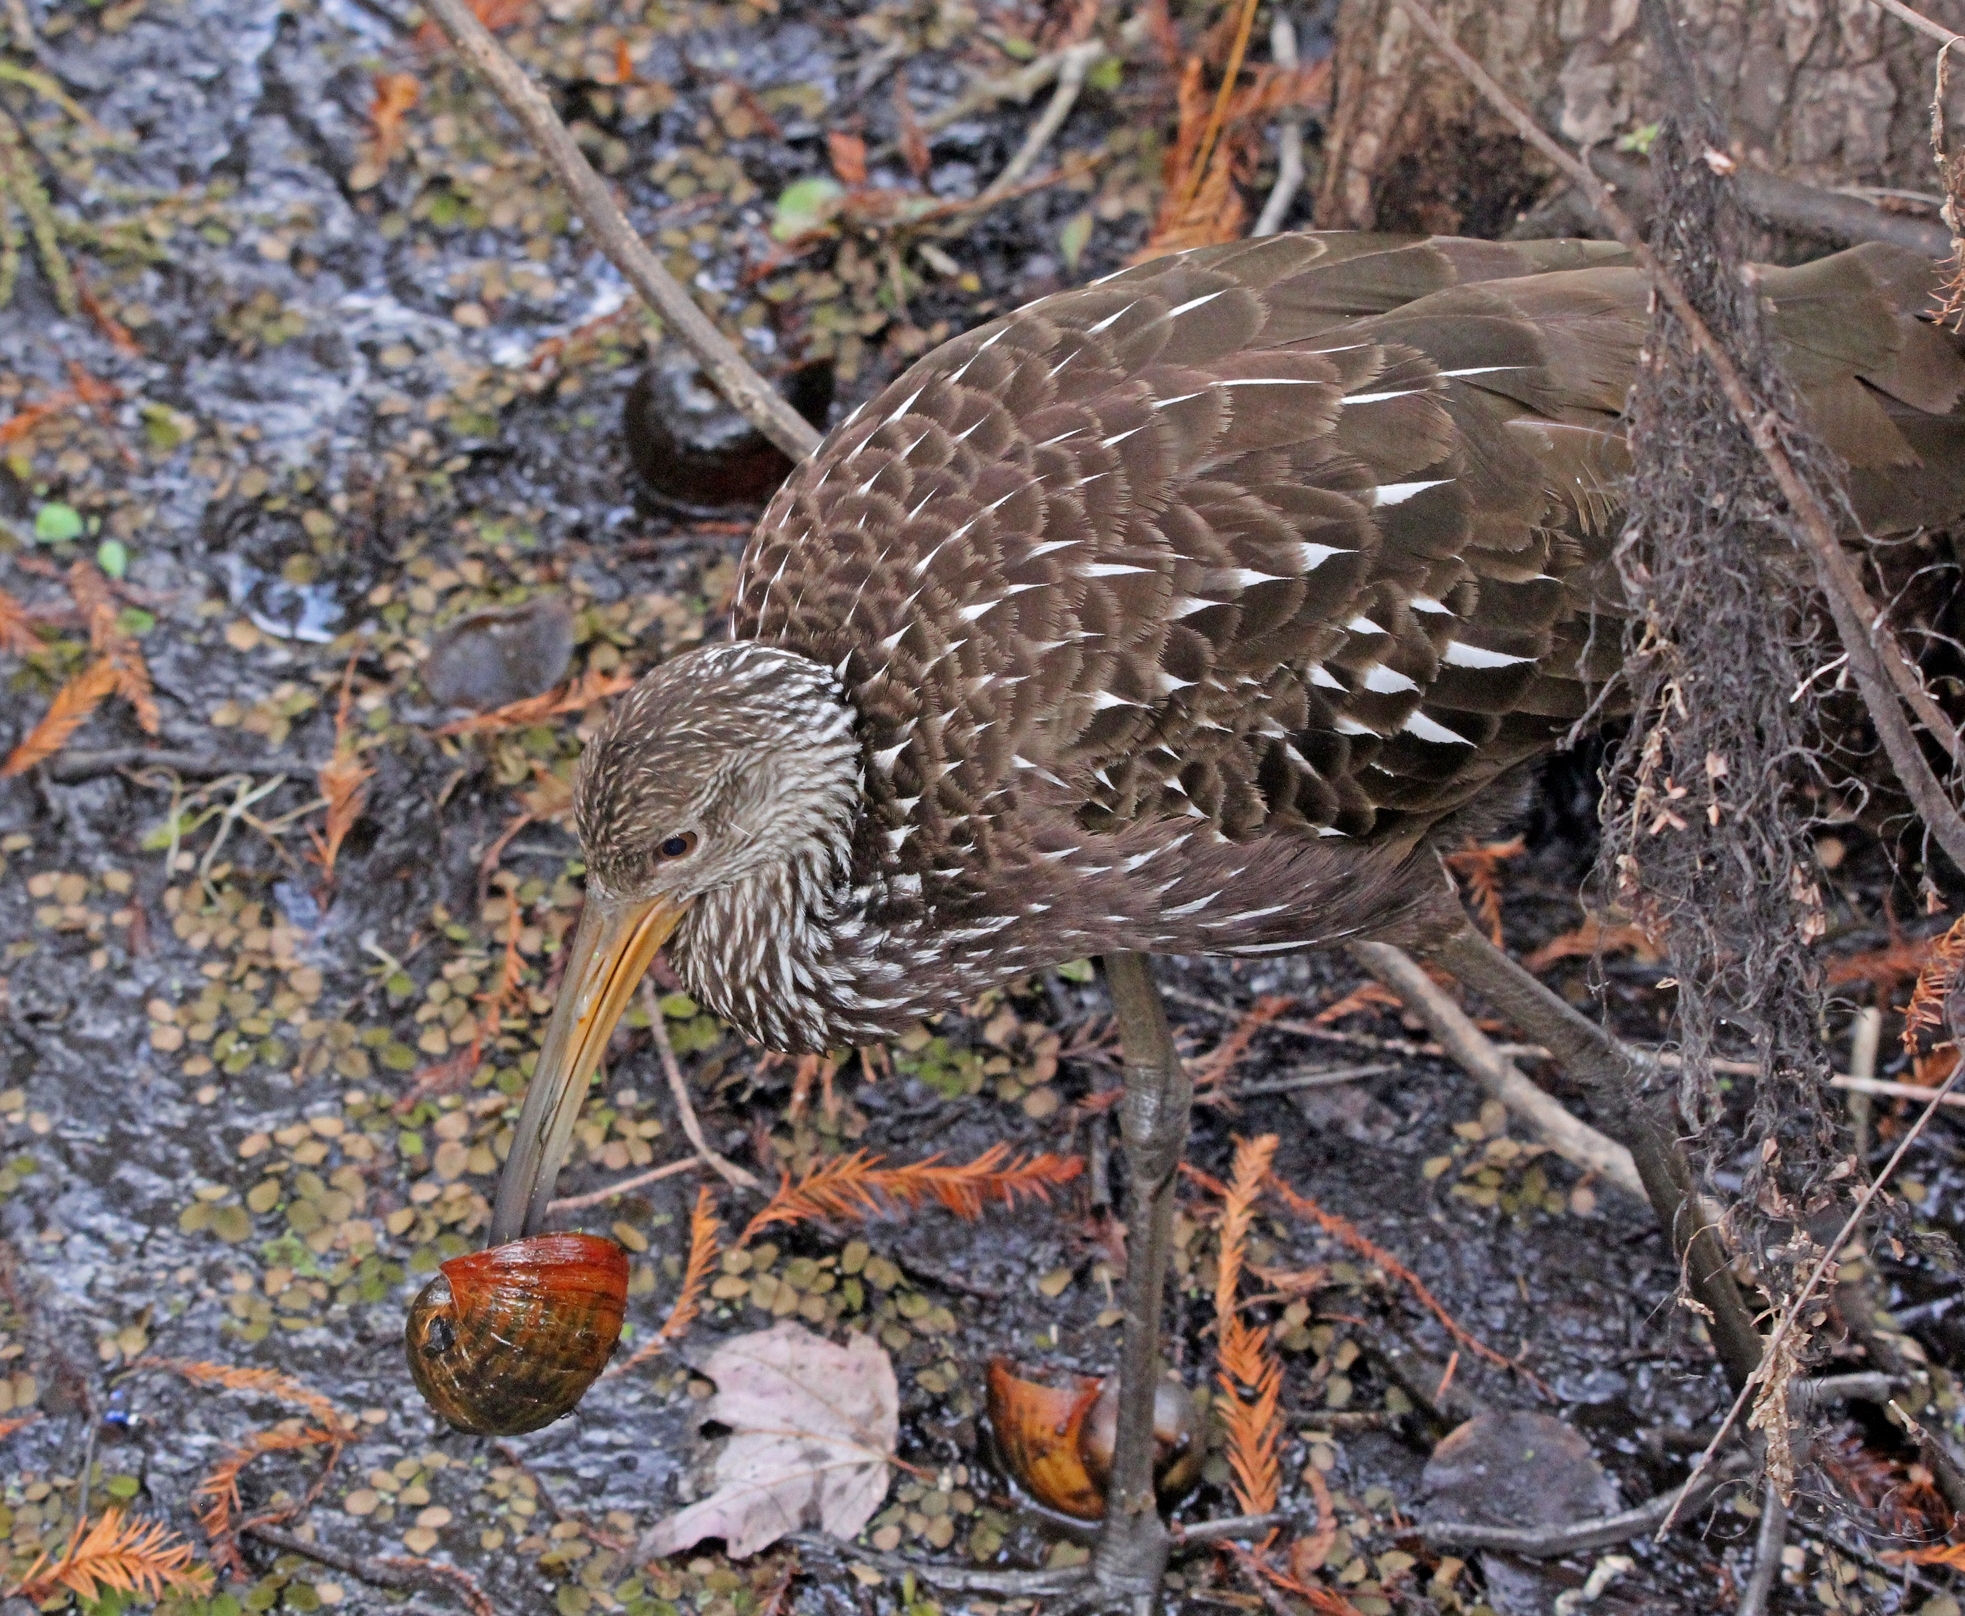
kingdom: Animalia
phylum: Chordata
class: Aves
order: Gruiformes
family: Aramidae
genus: Aramus
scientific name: Aramus guarauna
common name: Limpkin
